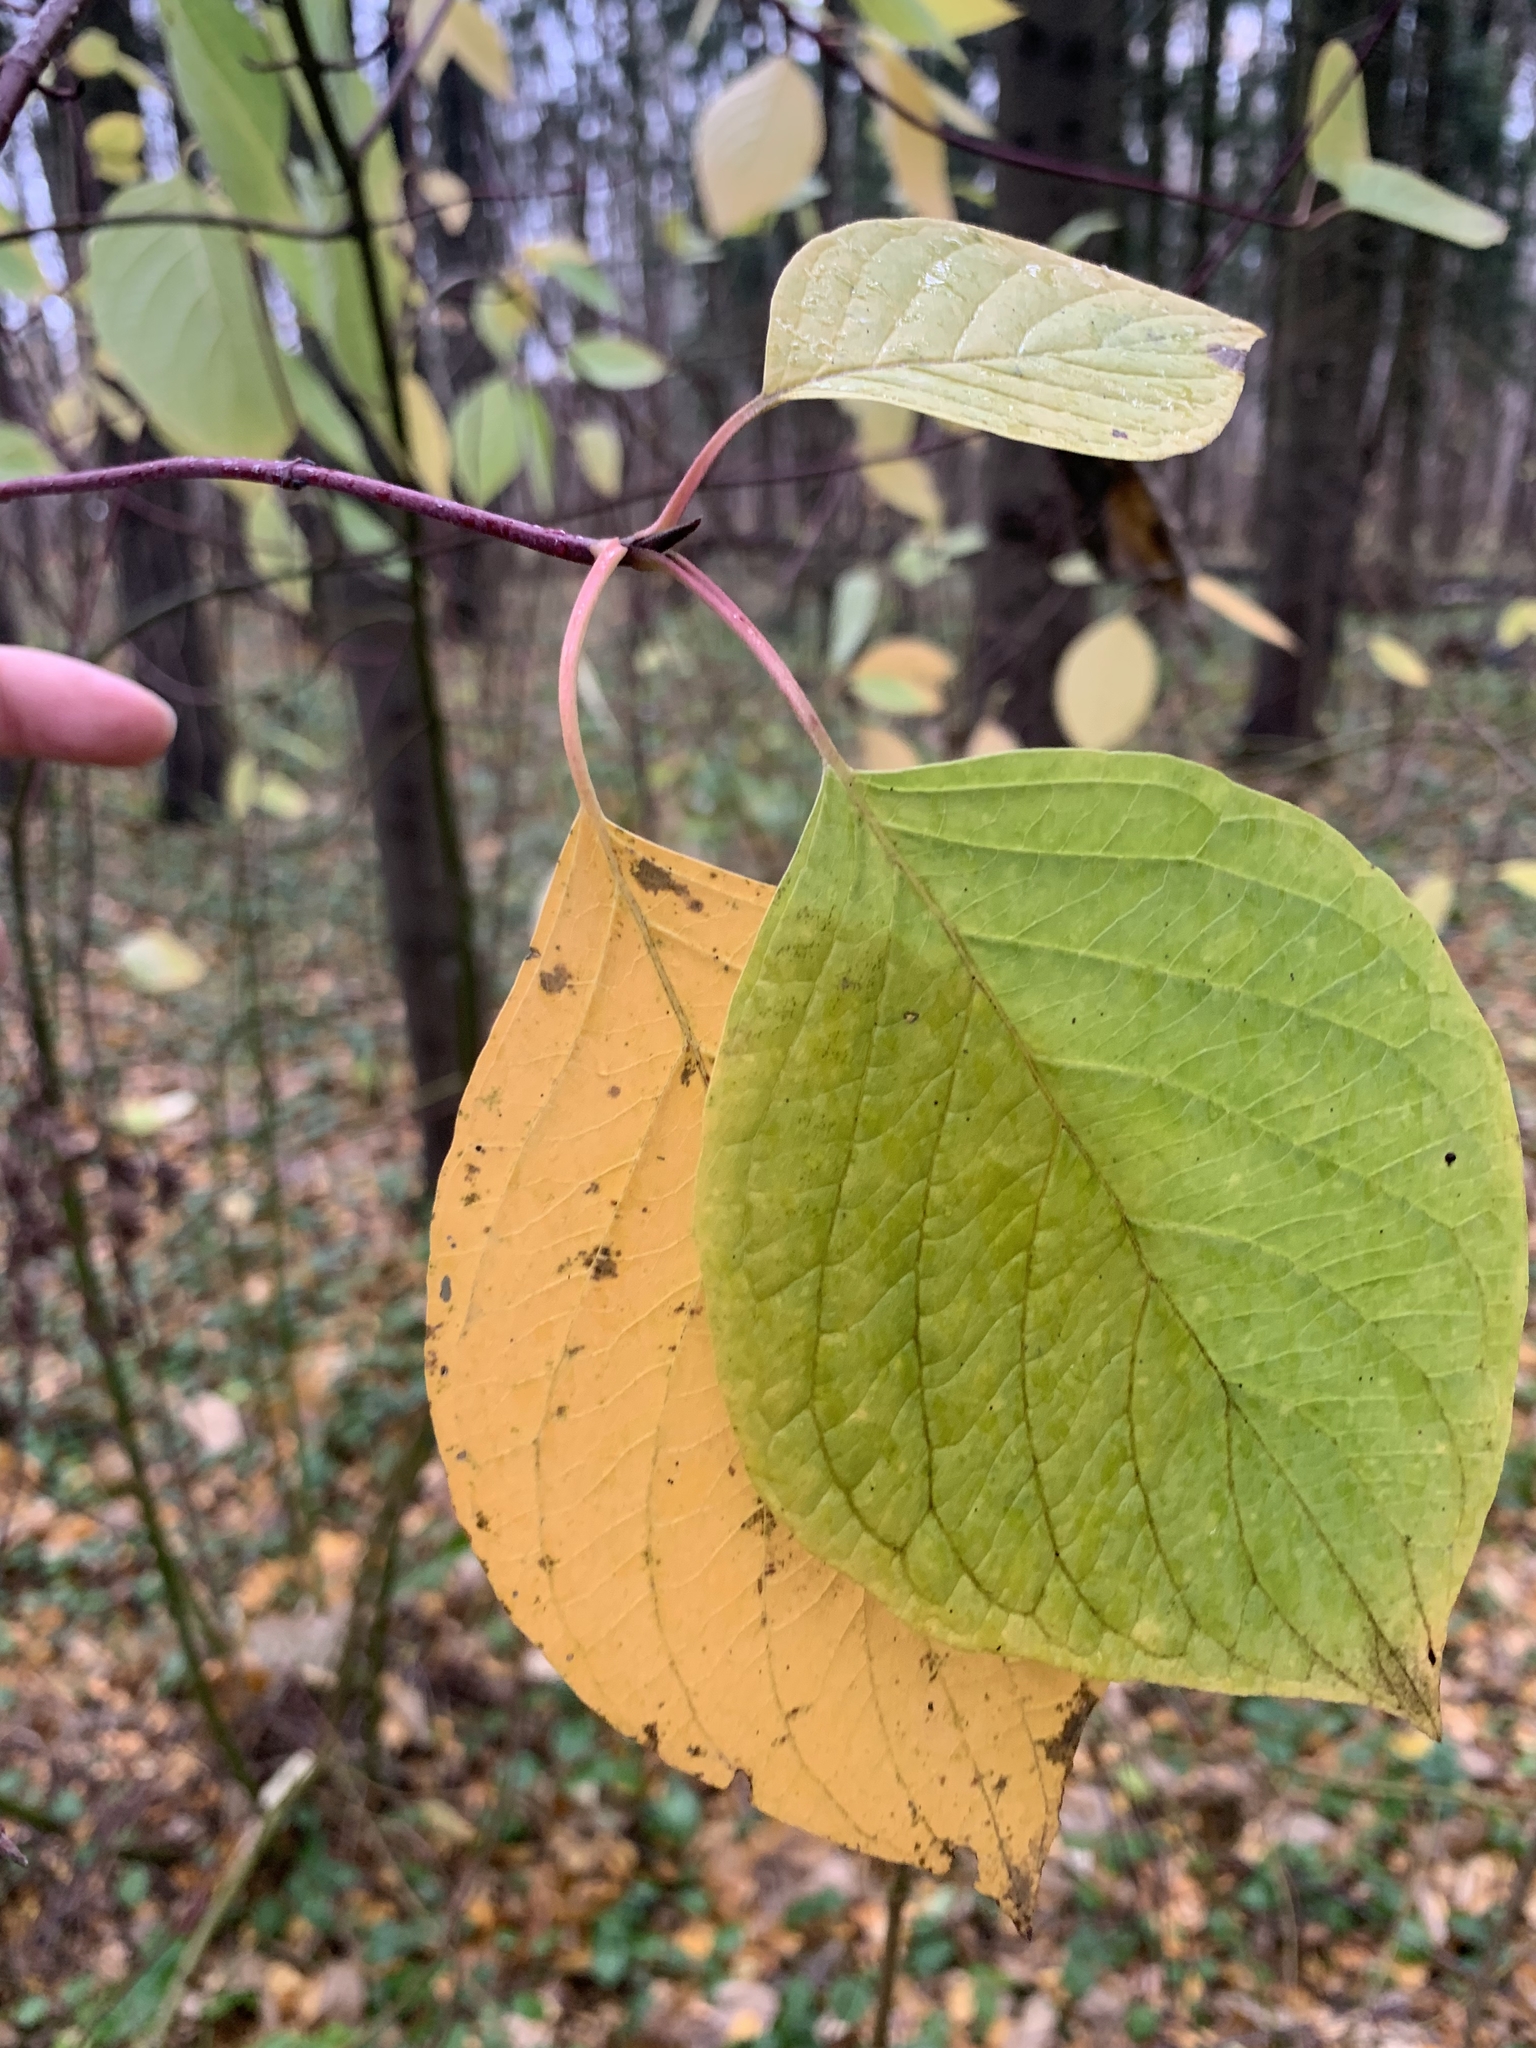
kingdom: Plantae
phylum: Tracheophyta
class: Magnoliopsida
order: Cornales
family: Cornaceae
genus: Cornus
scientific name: Cornus sericea
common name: Red-osier dogwood
